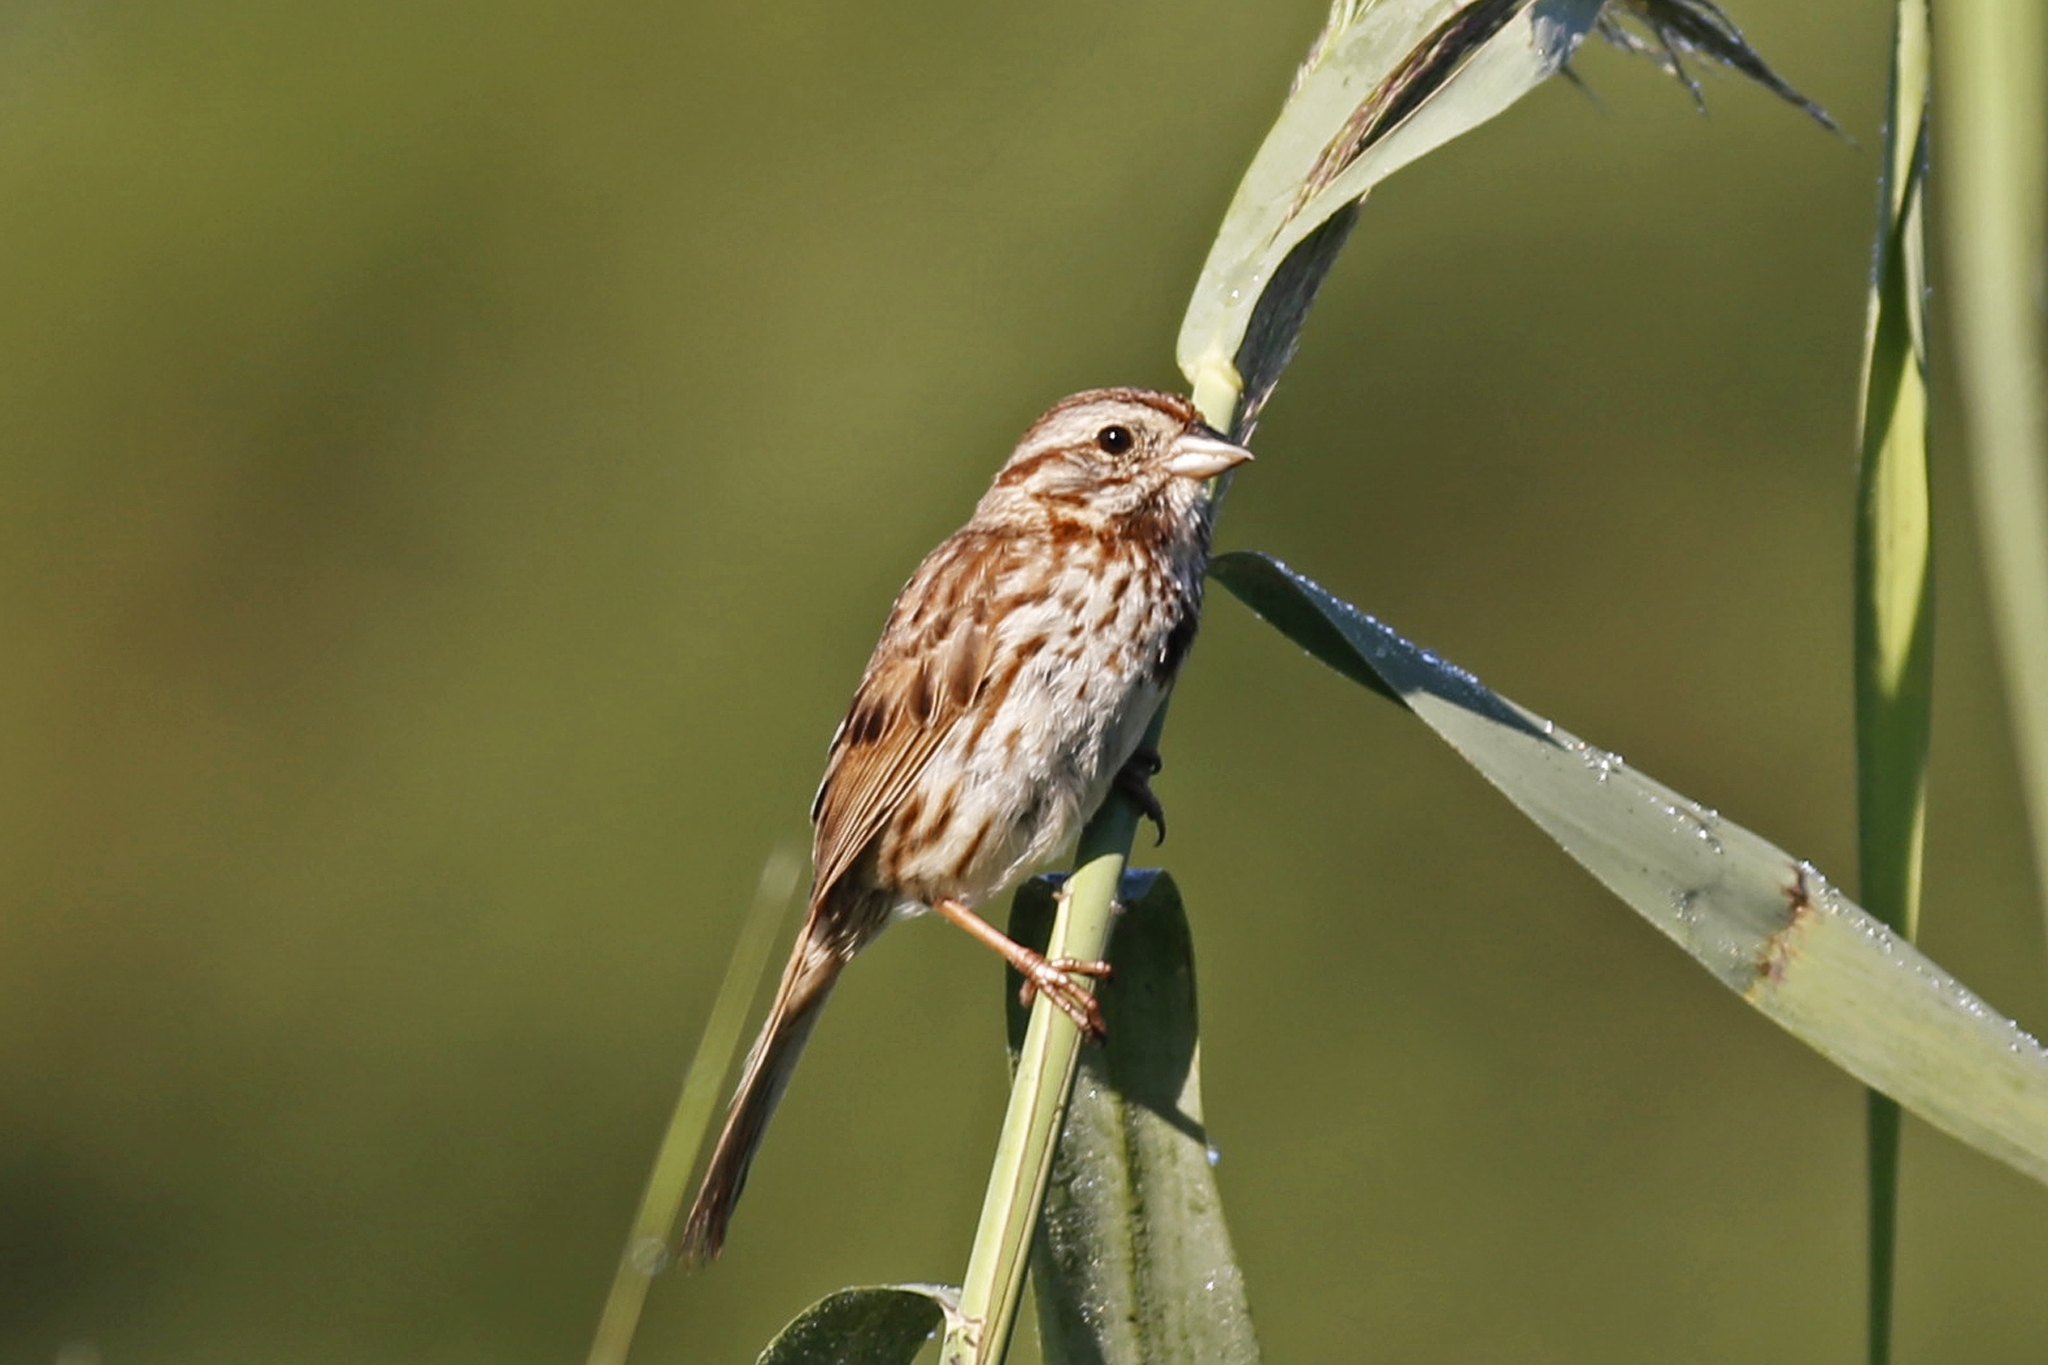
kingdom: Animalia
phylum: Chordata
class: Aves
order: Passeriformes
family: Passerellidae
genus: Melospiza
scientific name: Melospiza melodia
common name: Song sparrow
